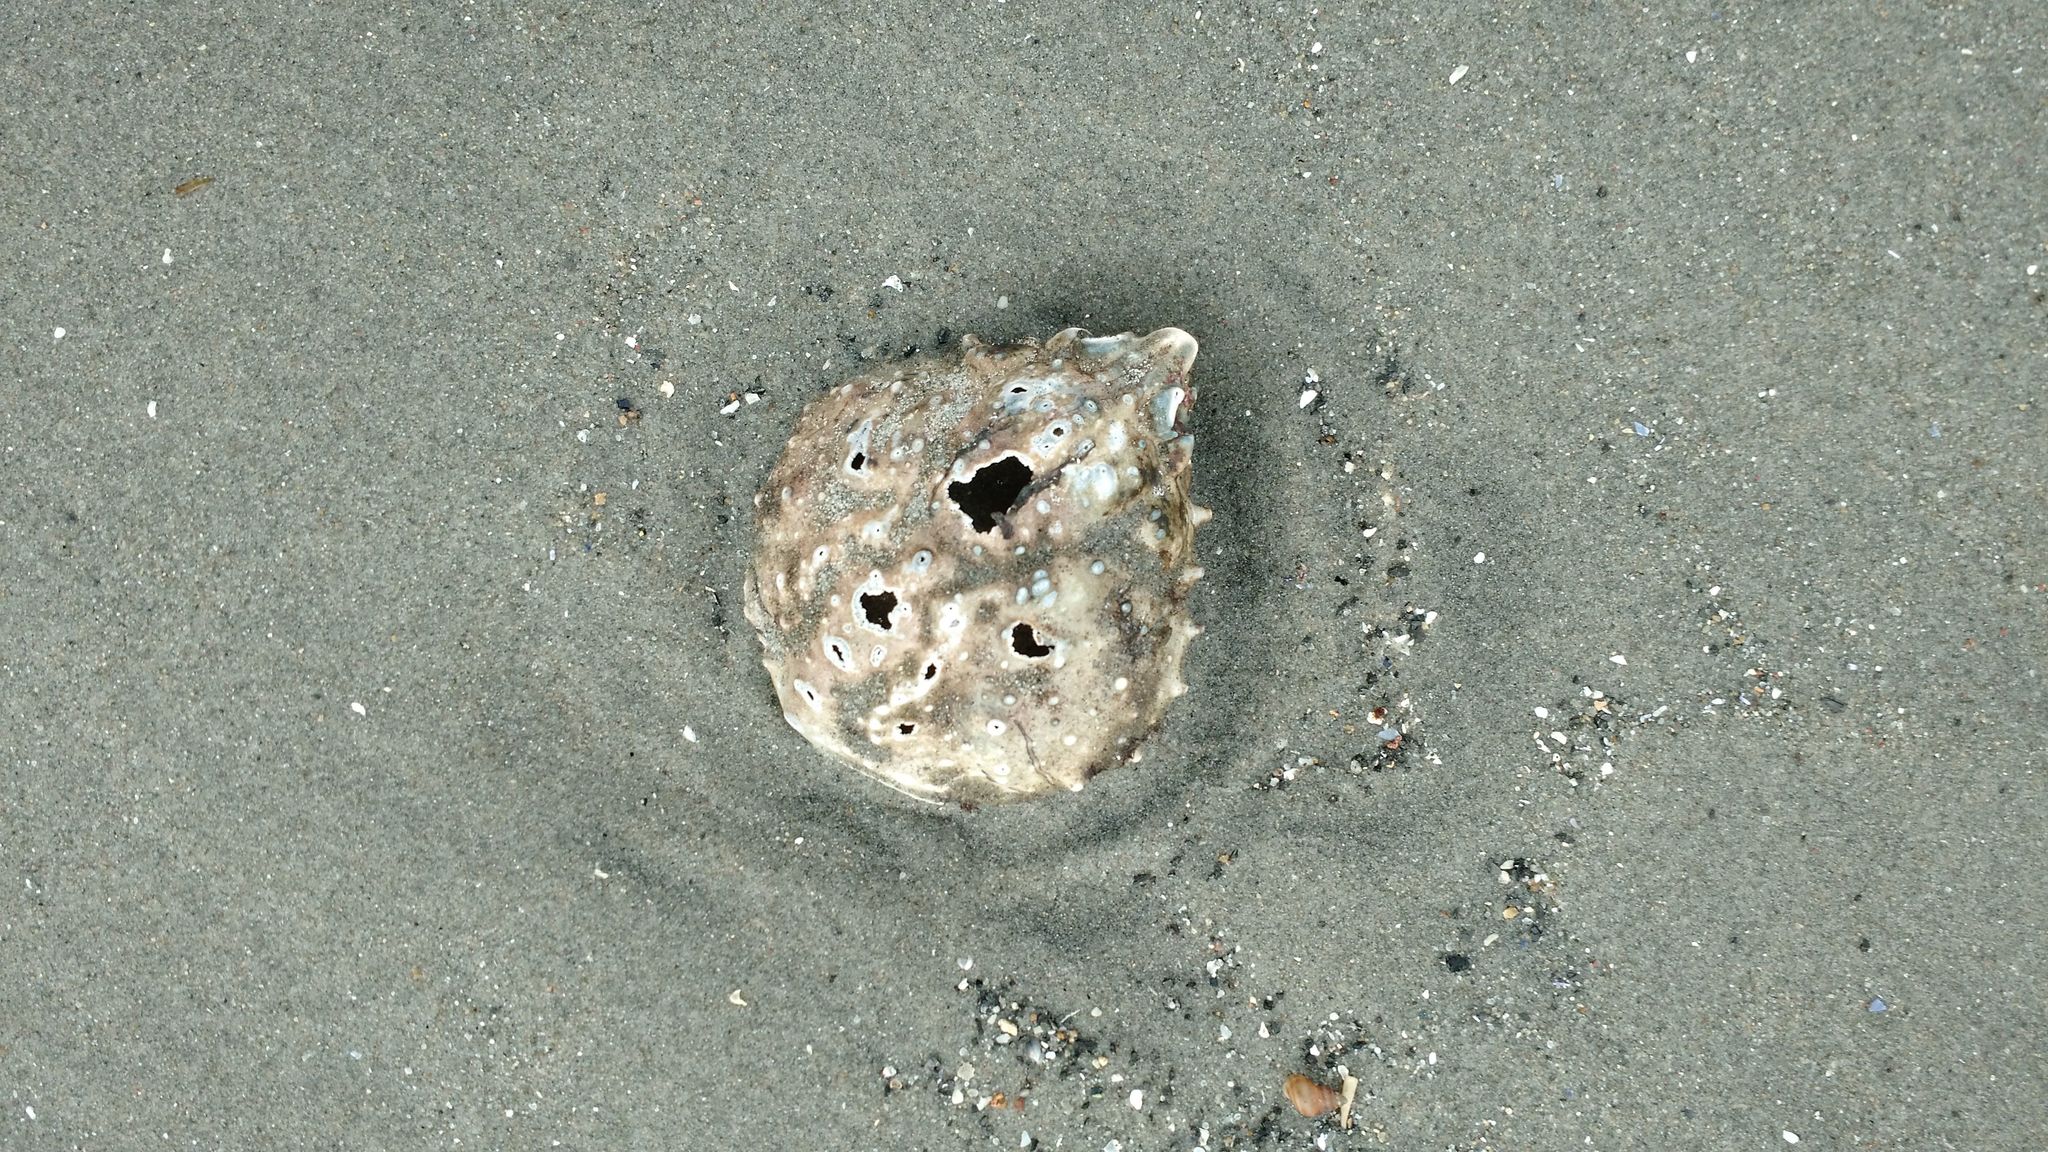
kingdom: Animalia
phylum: Arthropoda
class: Malacostraca
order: Decapoda
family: Epialtidae
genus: Libinia
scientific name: Libinia emarginata
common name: Common spider crab
